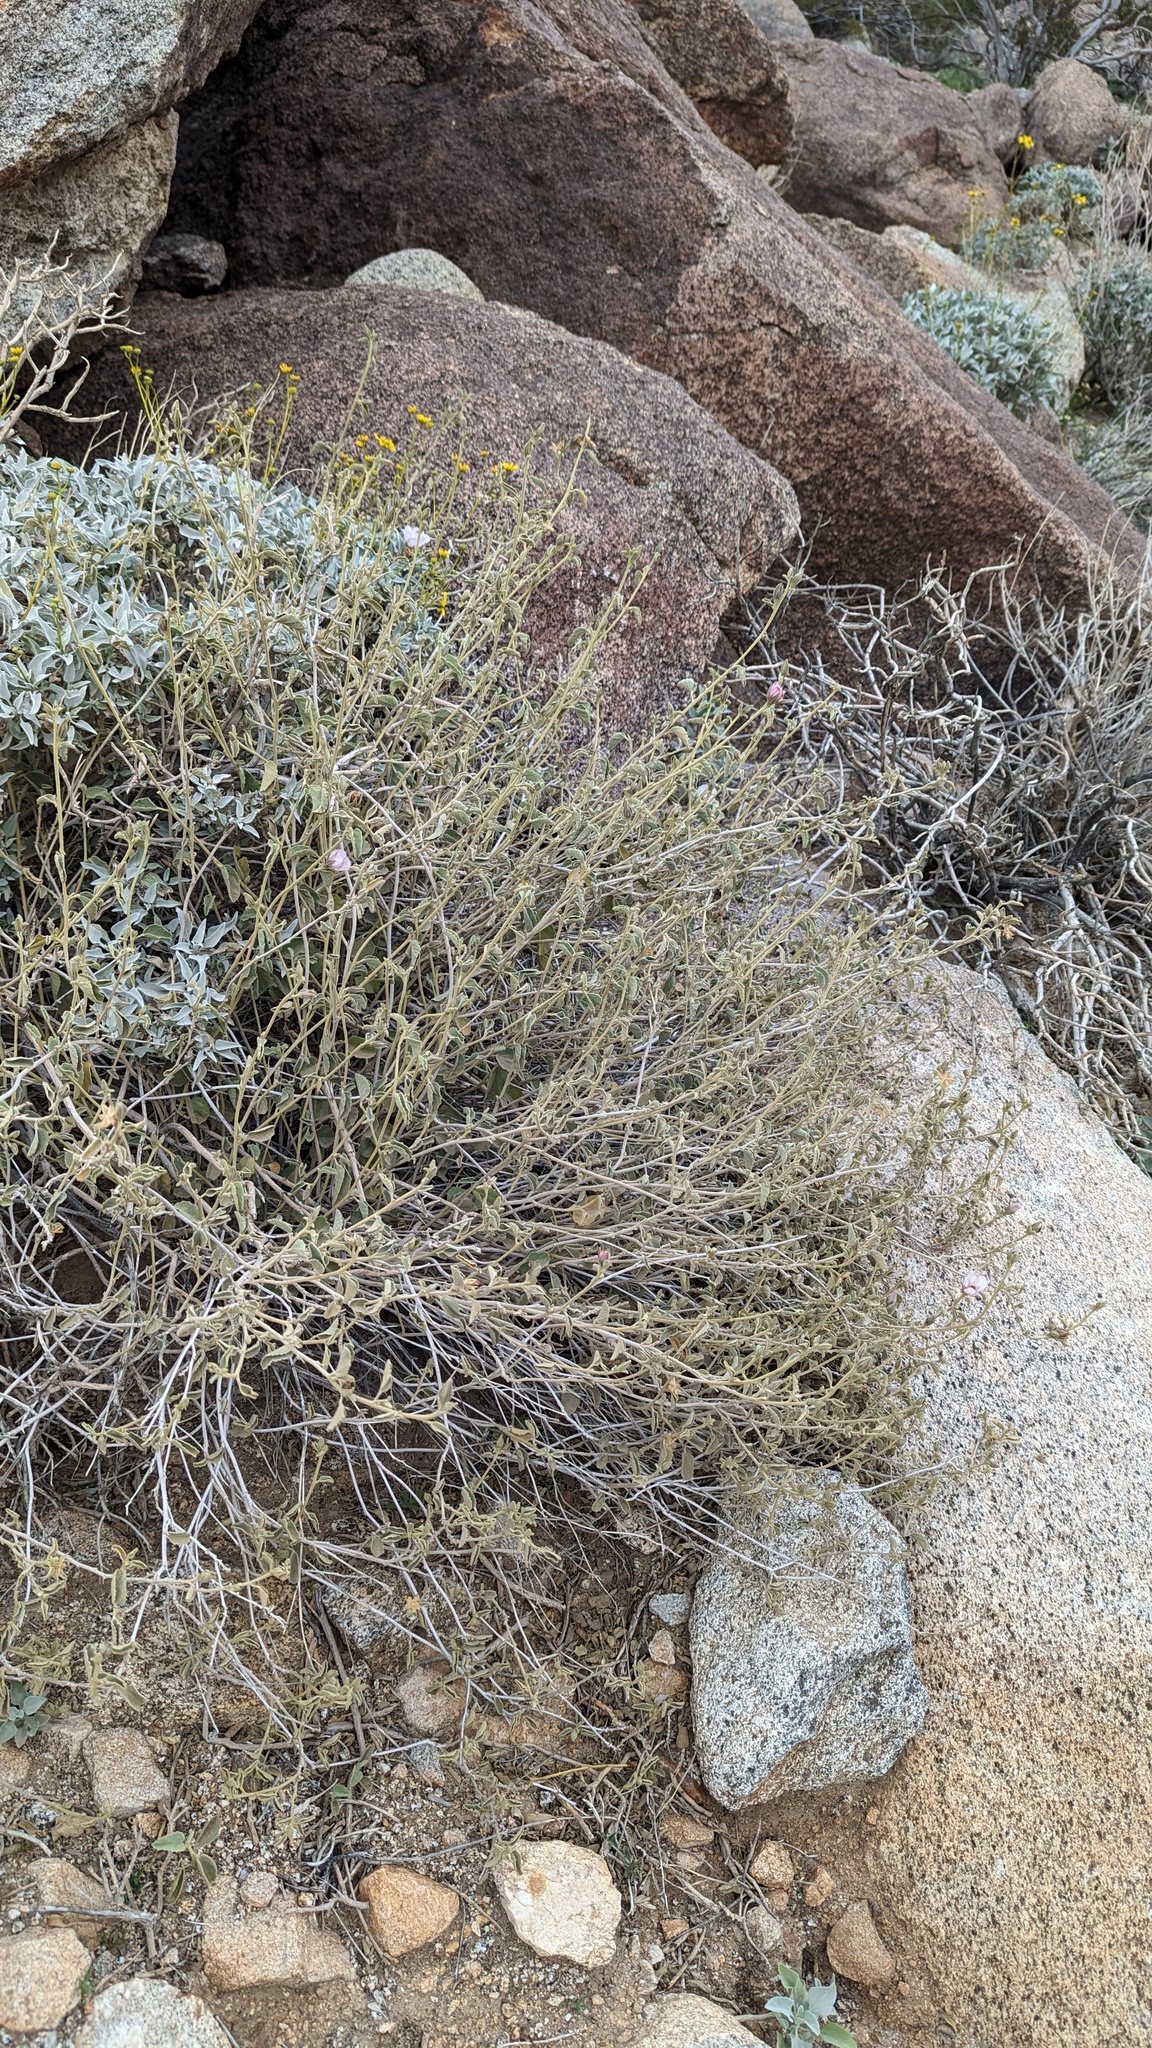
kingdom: Plantae
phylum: Tracheophyta
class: Magnoliopsida
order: Malvales
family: Malvaceae
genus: Hibiscus
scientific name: Hibiscus denudatus
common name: Paleface
